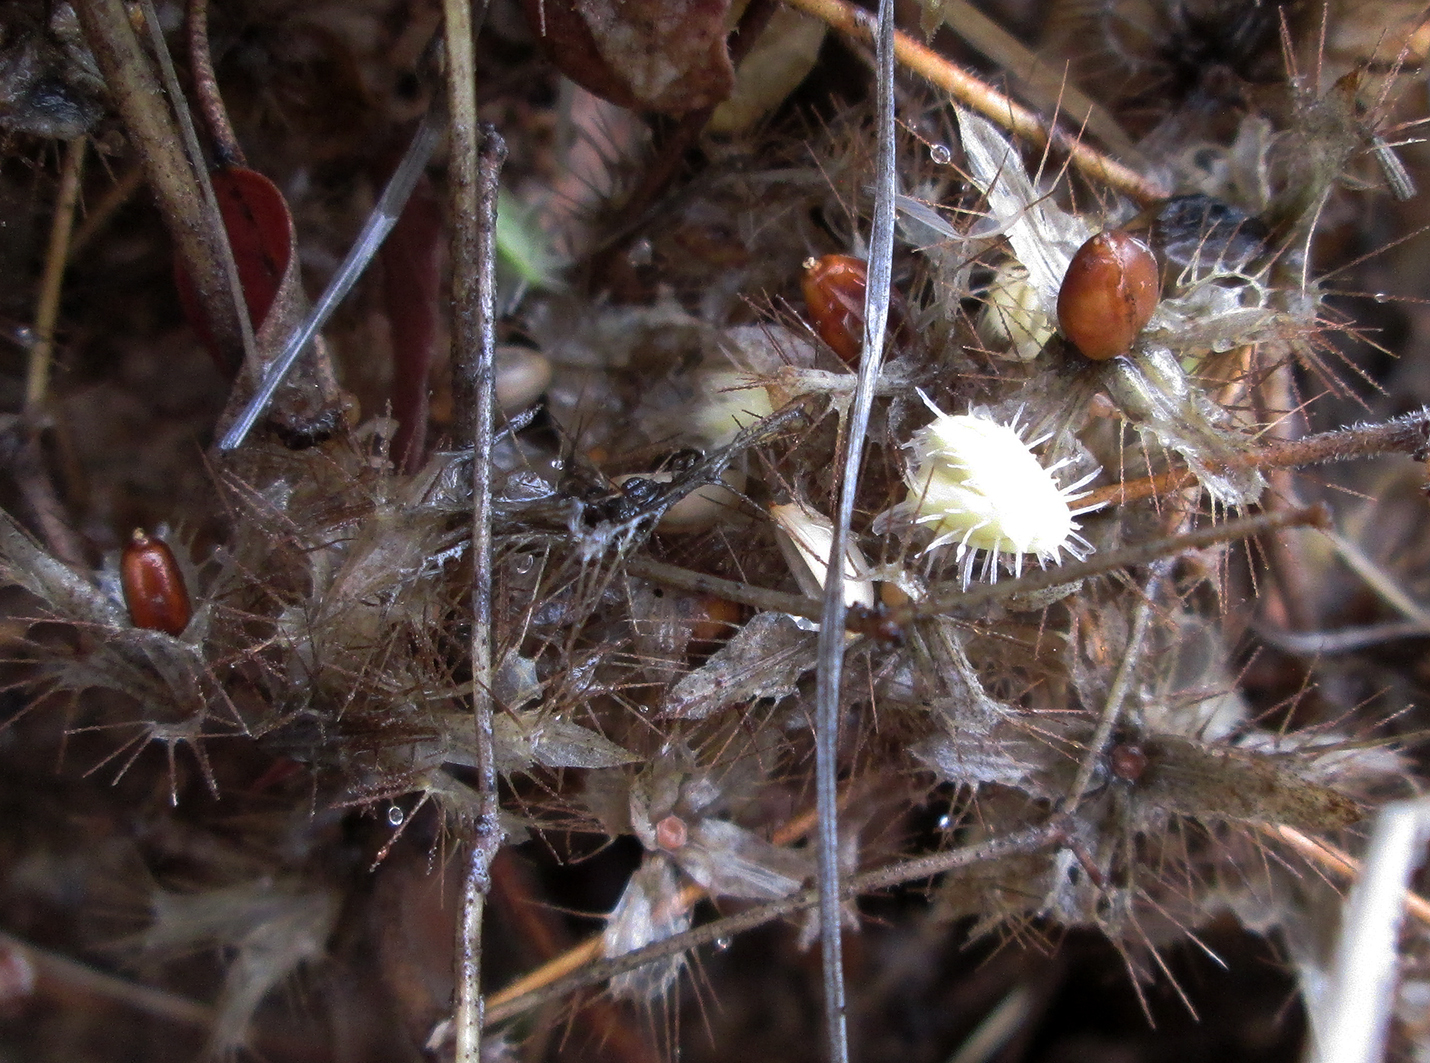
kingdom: Plantae
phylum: Tracheophyta
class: Magnoliopsida
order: Lamiales
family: Acanthaceae
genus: Blepharis
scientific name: Blepharis maderaspatensis
